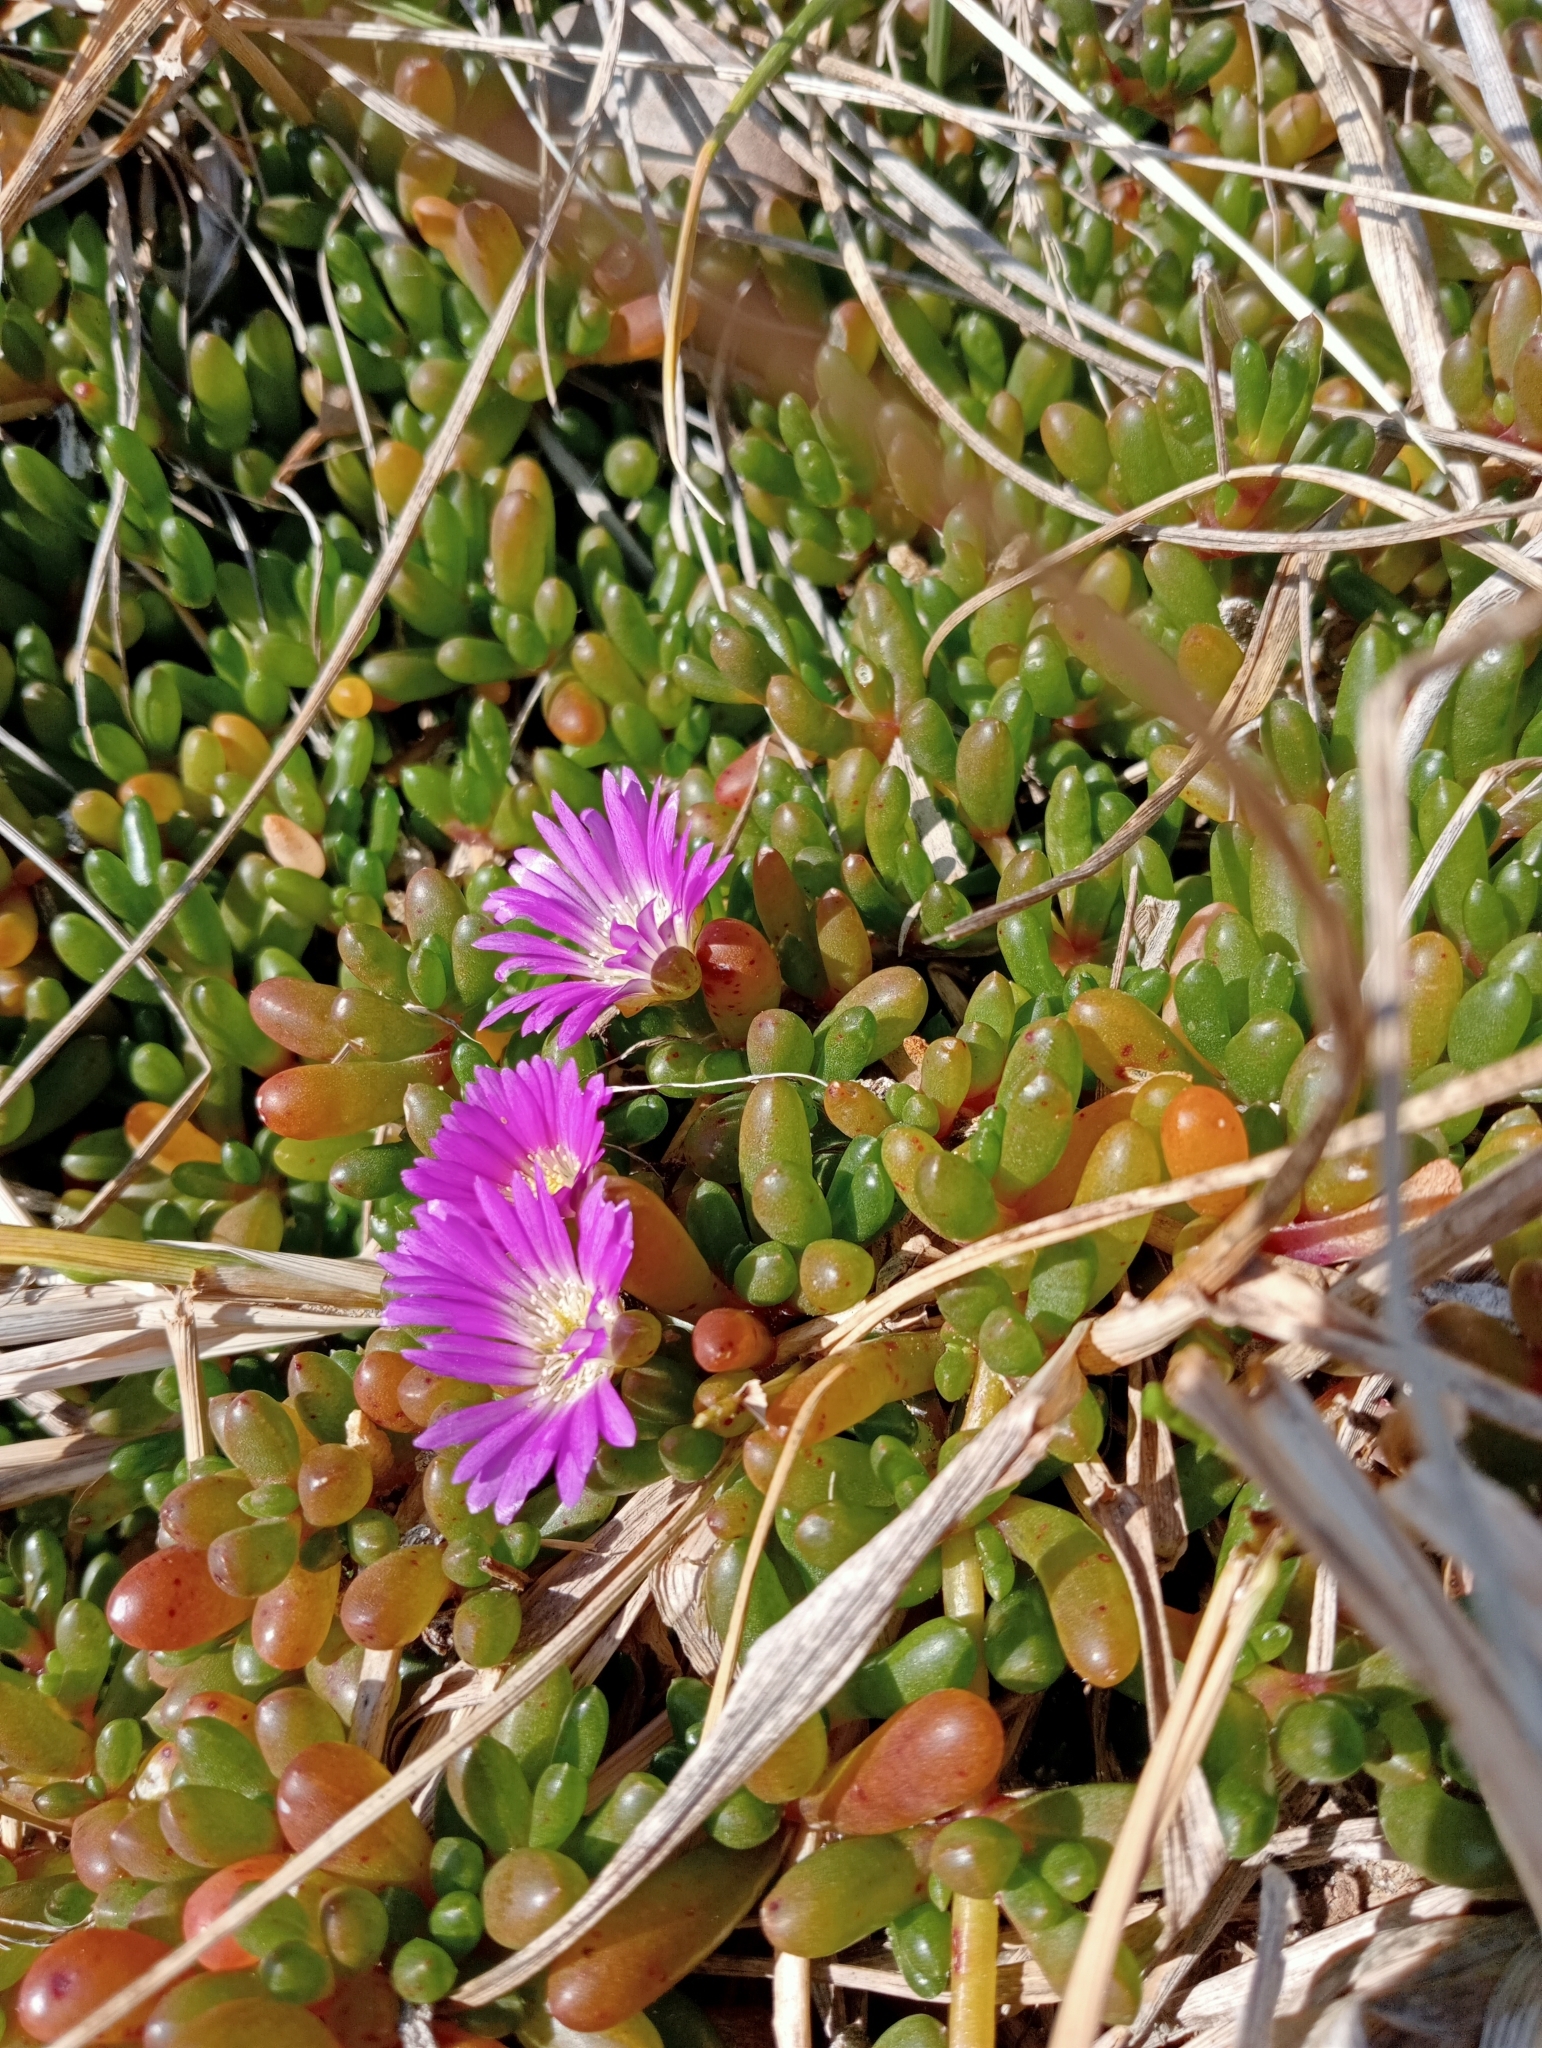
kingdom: Plantae
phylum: Tracheophyta
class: Magnoliopsida
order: Caryophyllales
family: Aizoaceae
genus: Disphyma
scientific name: Disphyma clavellatum
